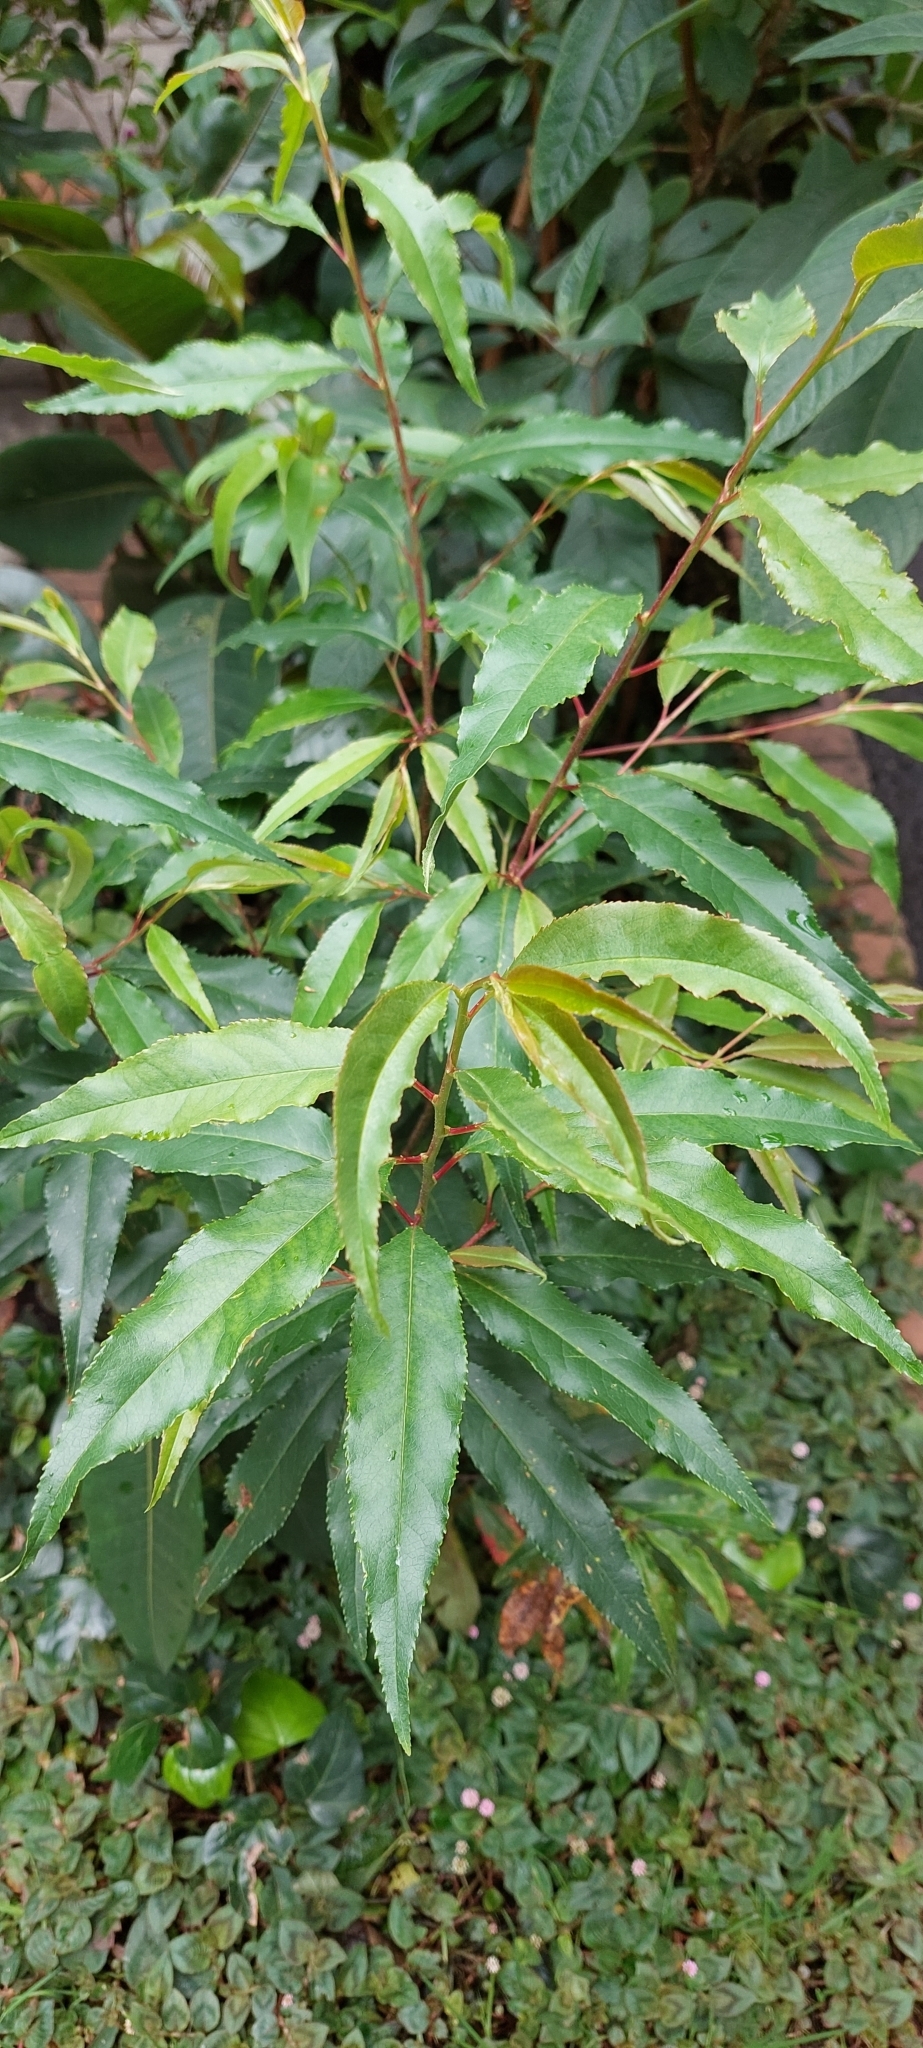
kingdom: Plantae
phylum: Tracheophyta
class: Magnoliopsida
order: Rosales
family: Rosaceae
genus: Prunus
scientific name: Prunus serotina
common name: Black cherry
